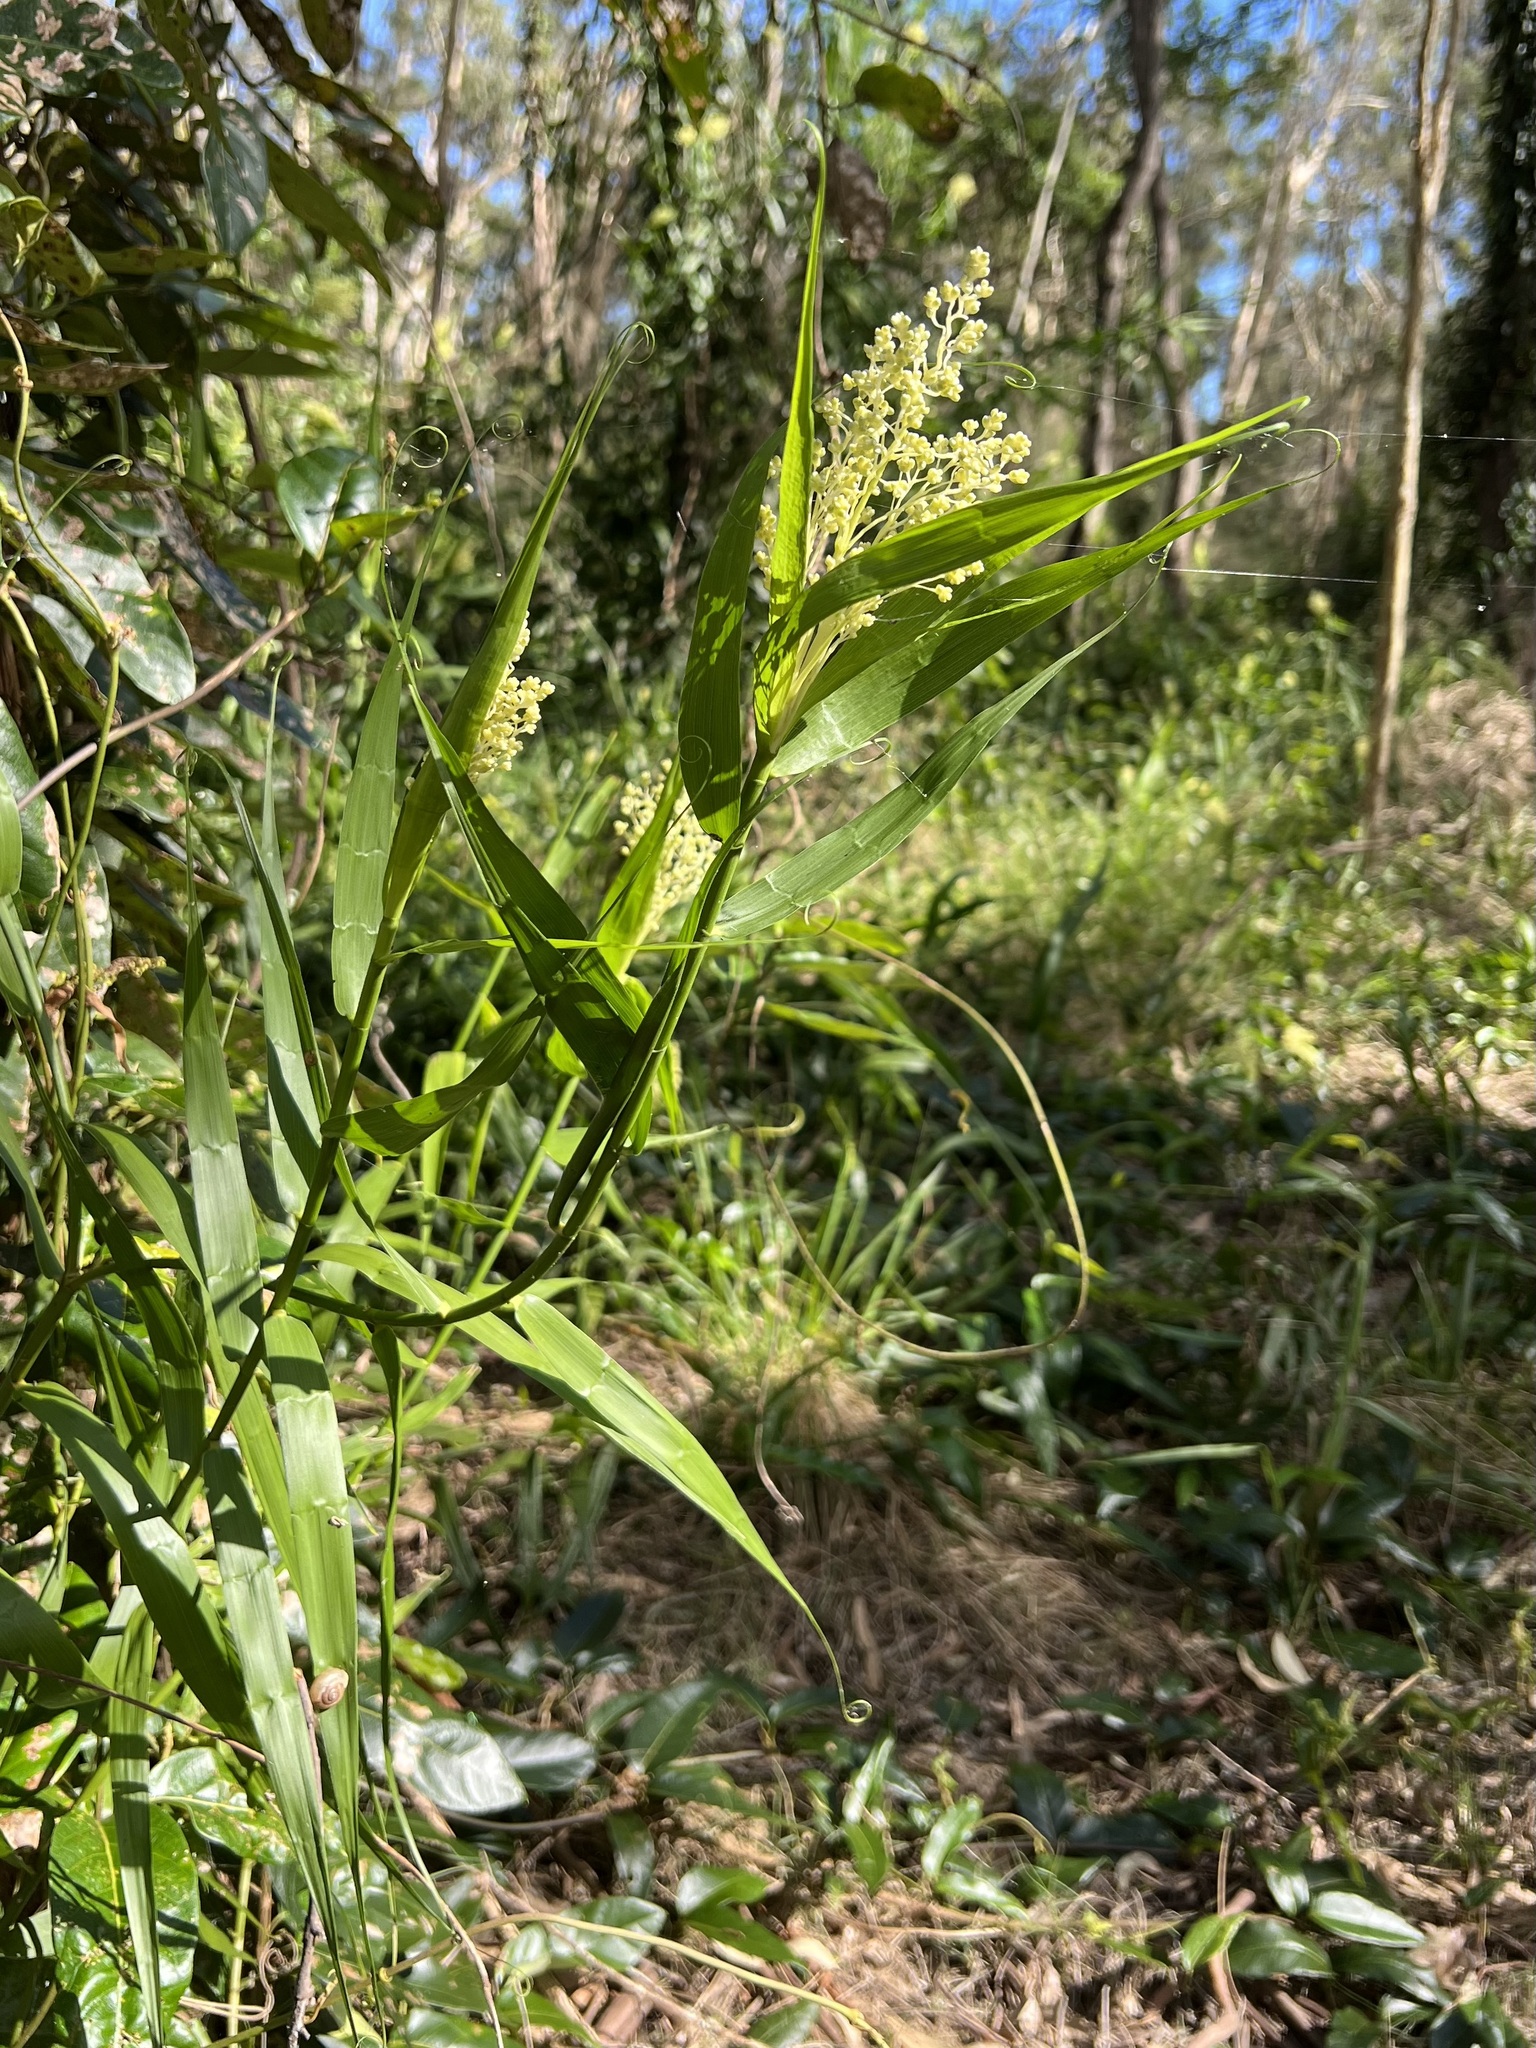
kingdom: Plantae
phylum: Tracheophyta
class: Liliopsida
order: Poales
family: Flagellariaceae
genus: Flagellaria
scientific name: Flagellaria indica
